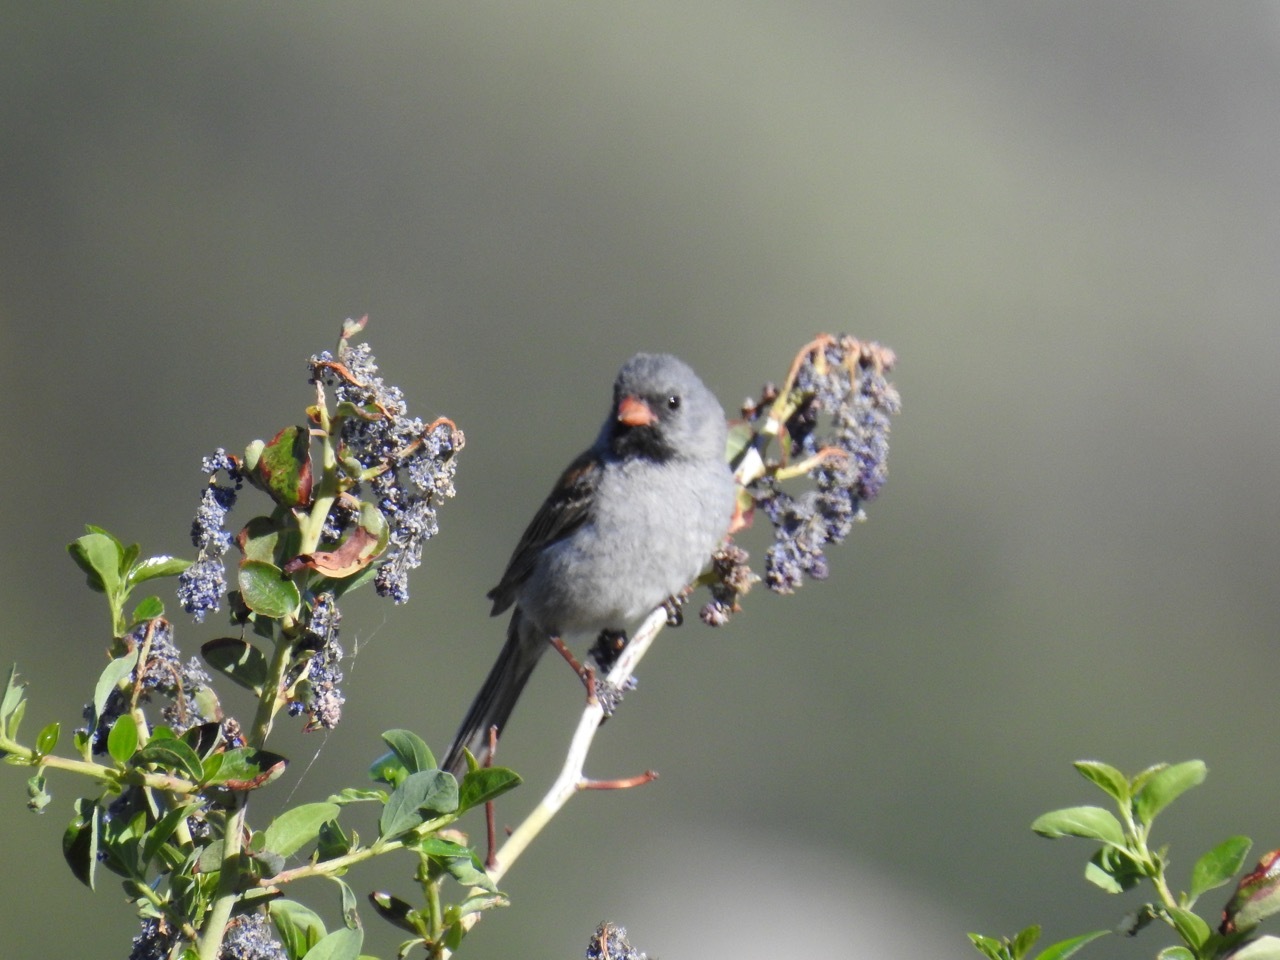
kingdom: Animalia
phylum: Chordata
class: Aves
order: Passeriformes
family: Passerellidae
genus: Spizella
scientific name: Spizella atrogularis
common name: Black-chinned sparrow
